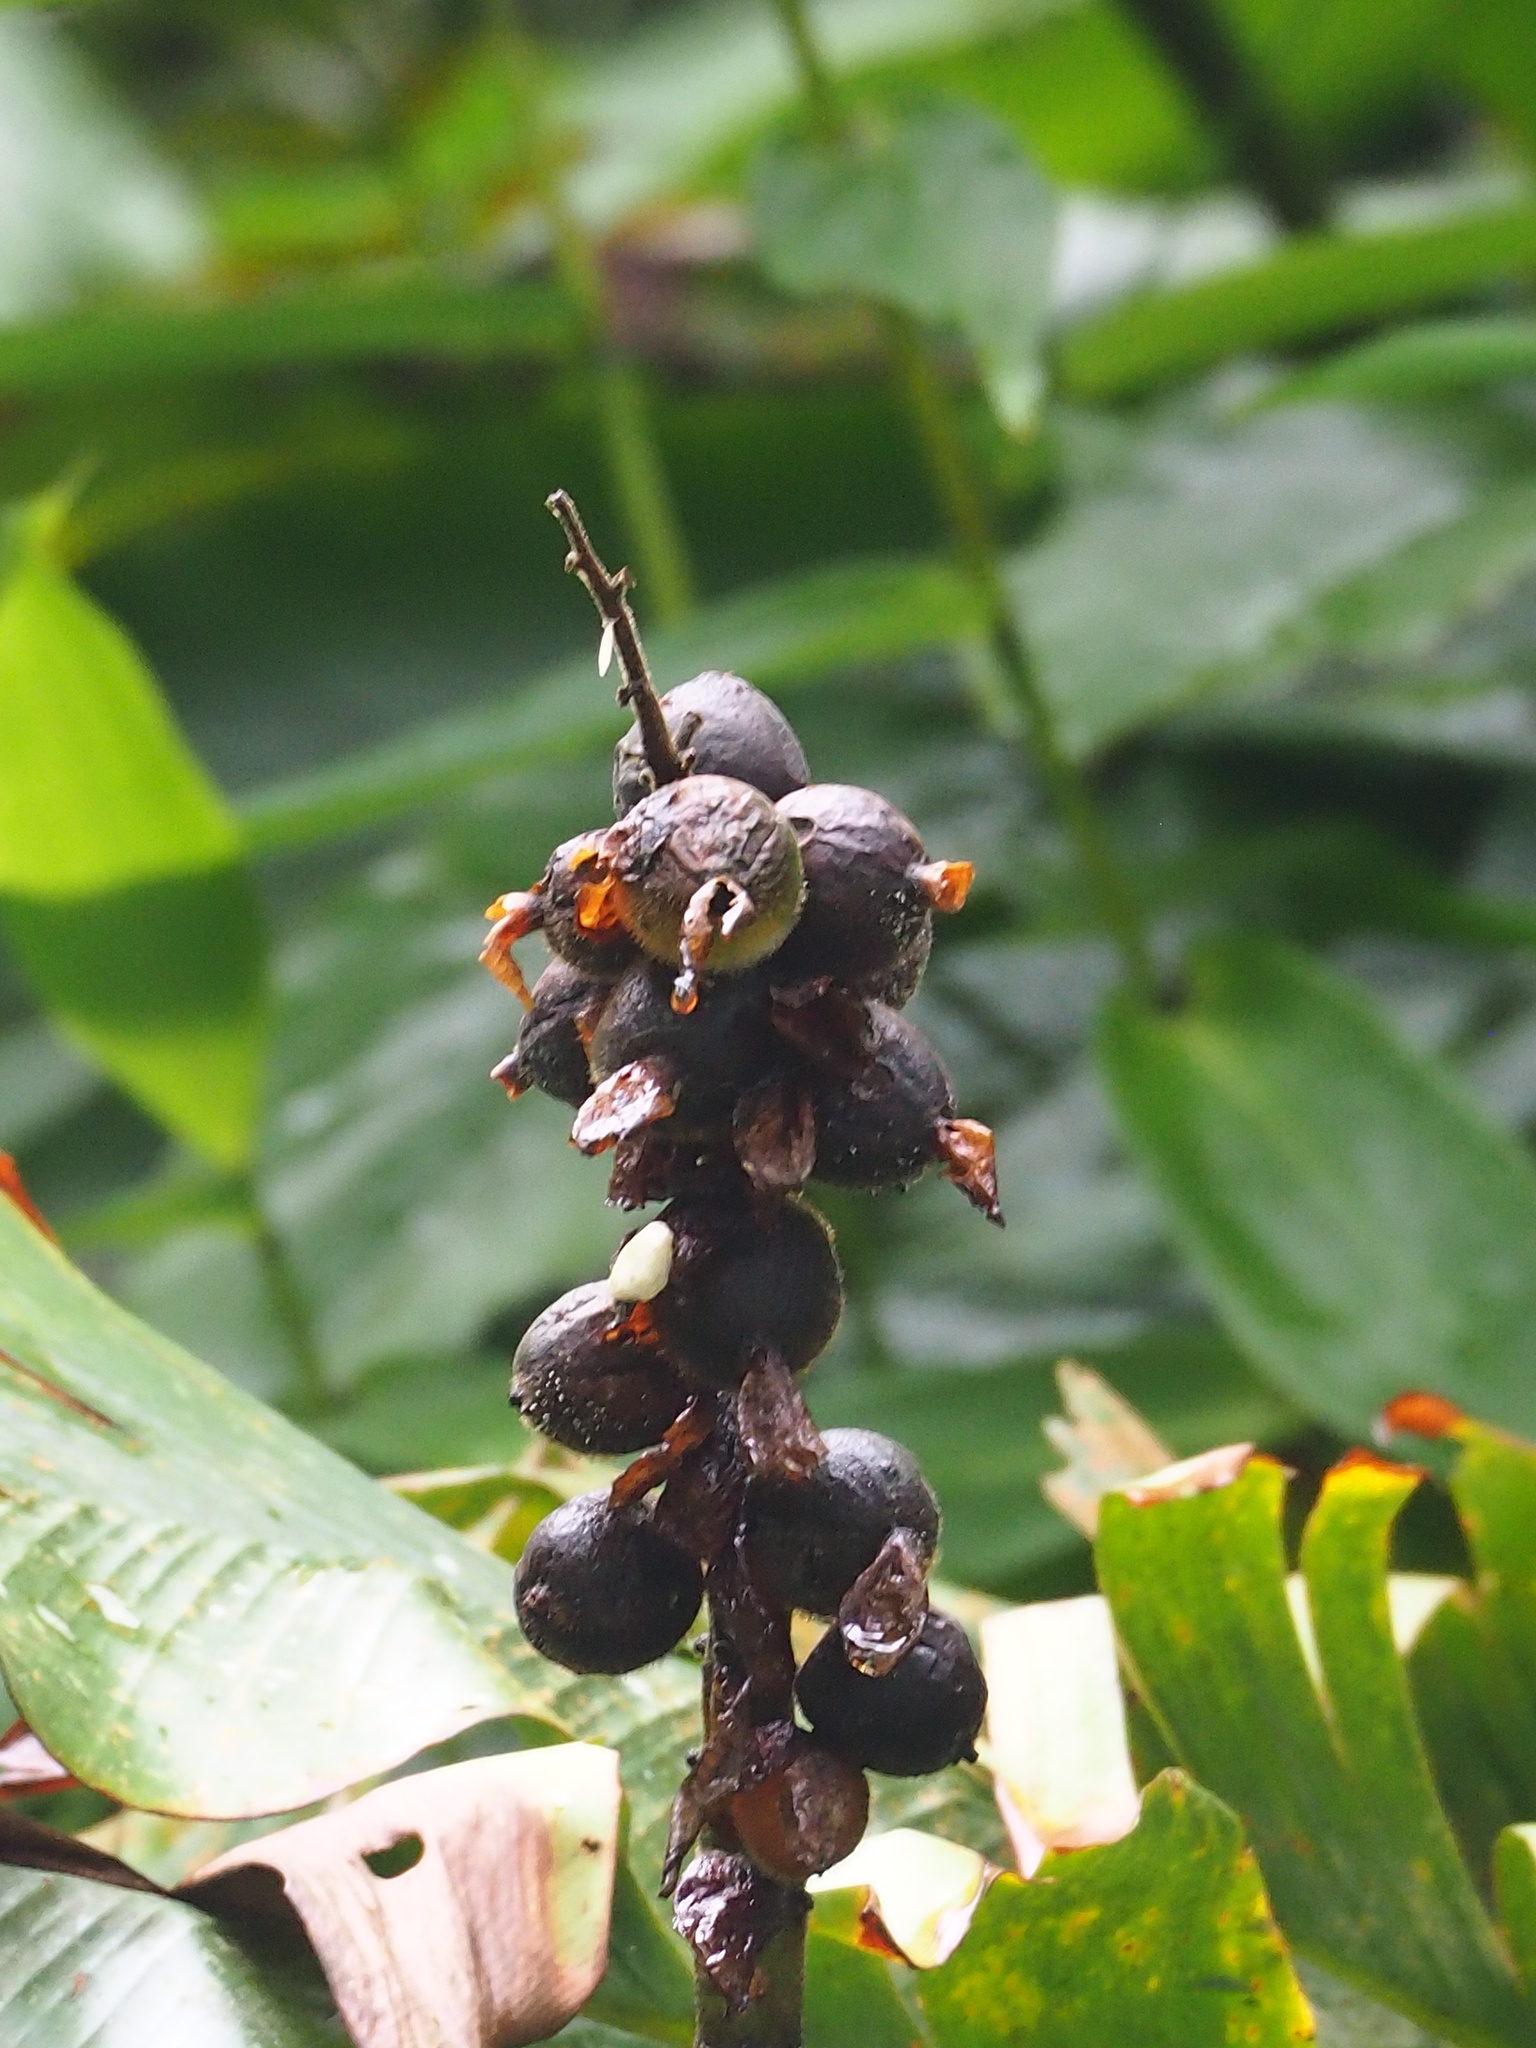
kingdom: Plantae
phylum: Tracheophyta
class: Liliopsida
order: Zingiberales
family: Zingiberaceae
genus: Alpinia
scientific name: Alpinia uraiensis
